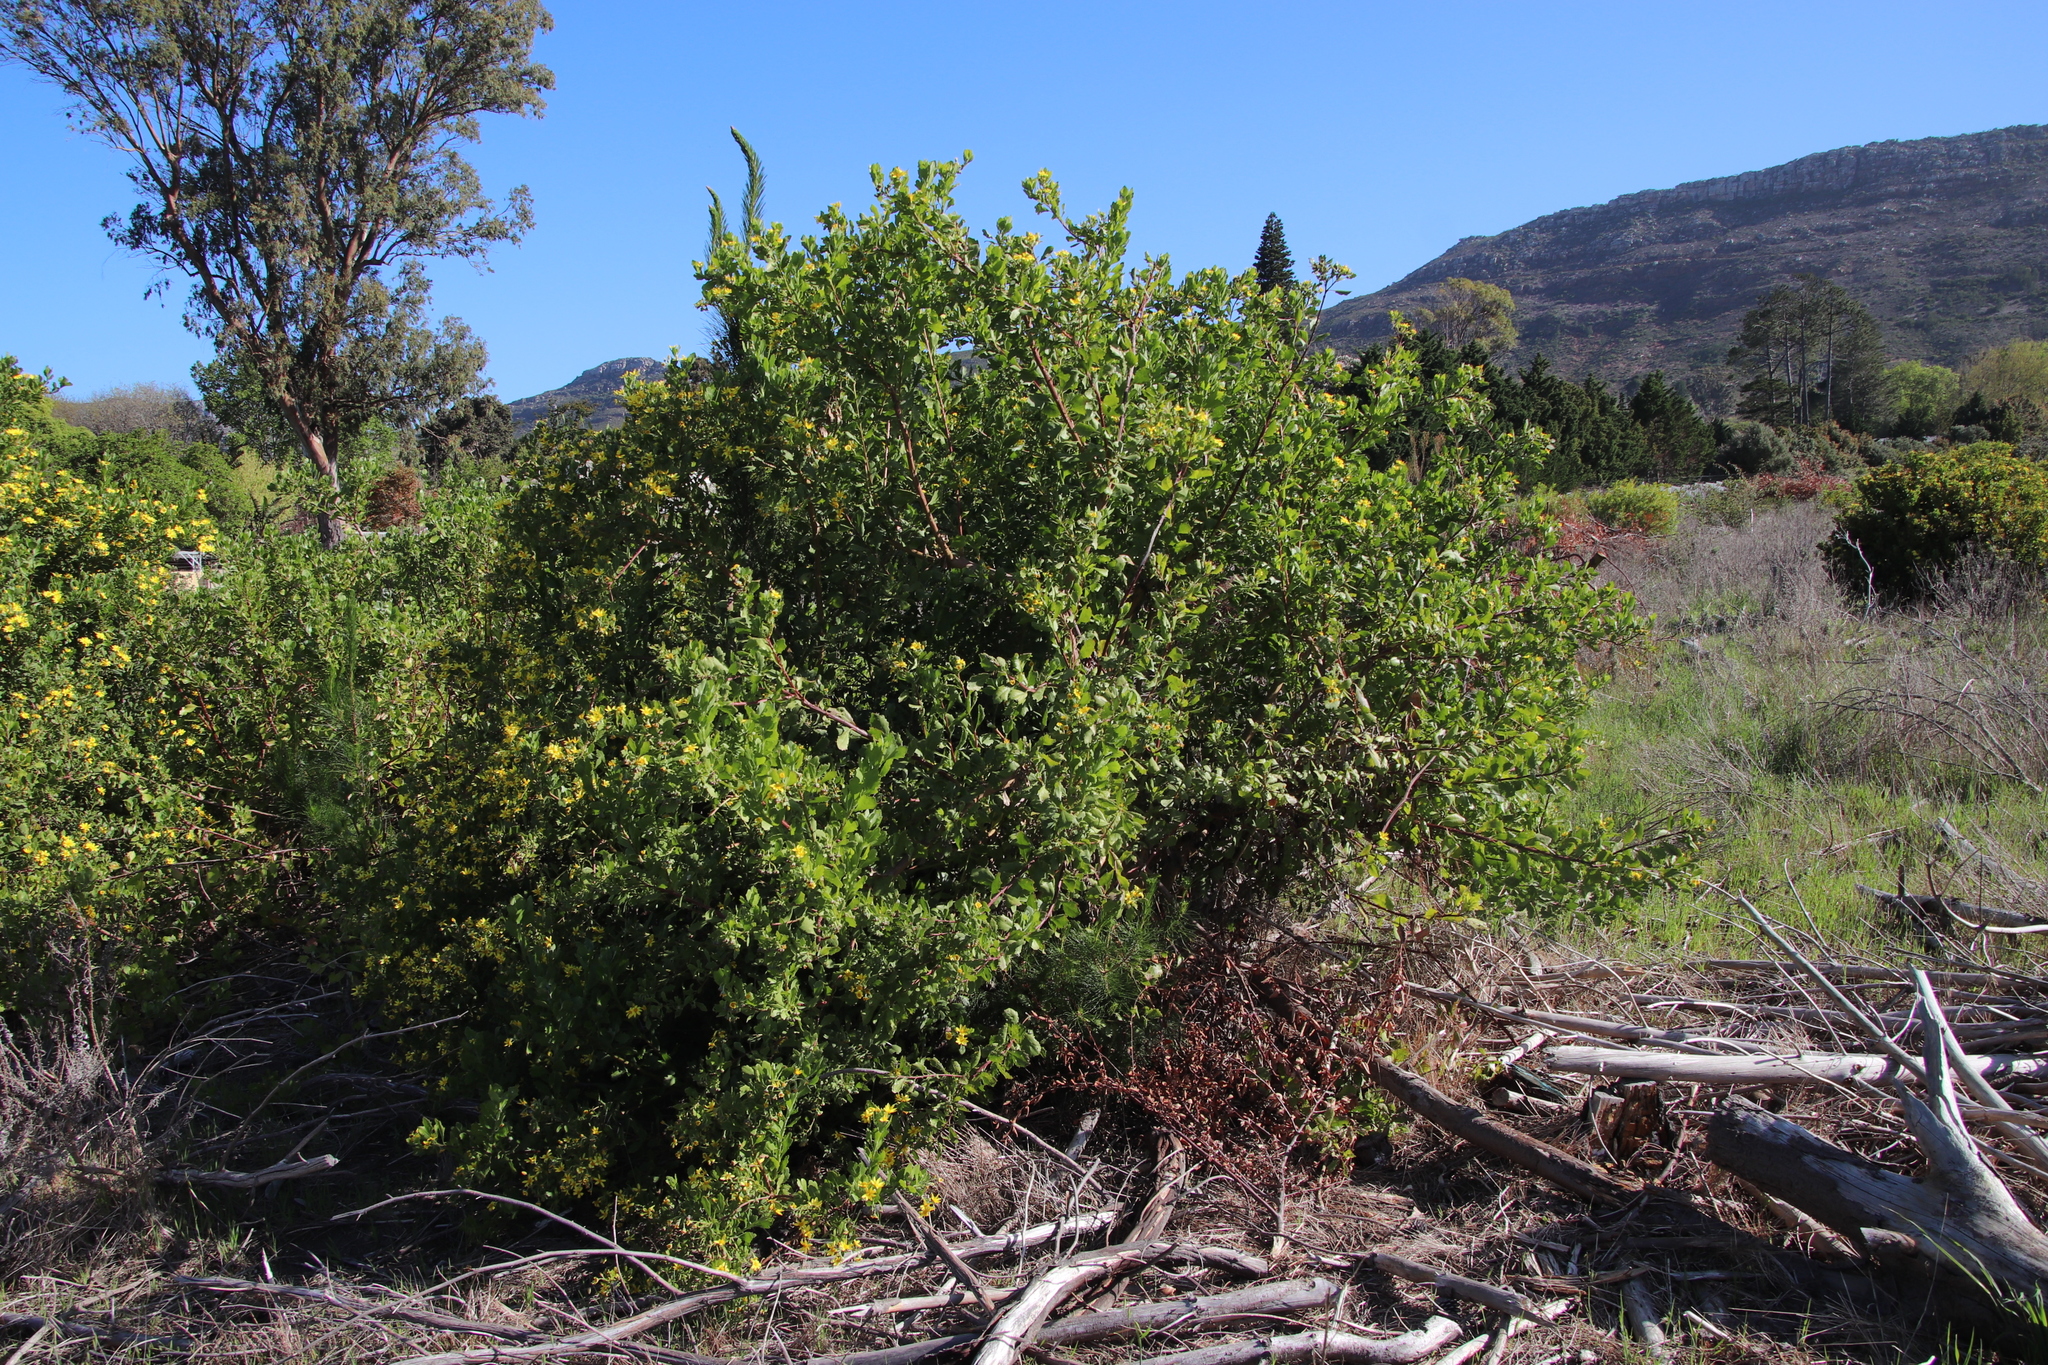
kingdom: Plantae
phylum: Tracheophyta
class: Magnoliopsida
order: Asterales
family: Asteraceae
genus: Osteospermum
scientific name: Osteospermum moniliferum
